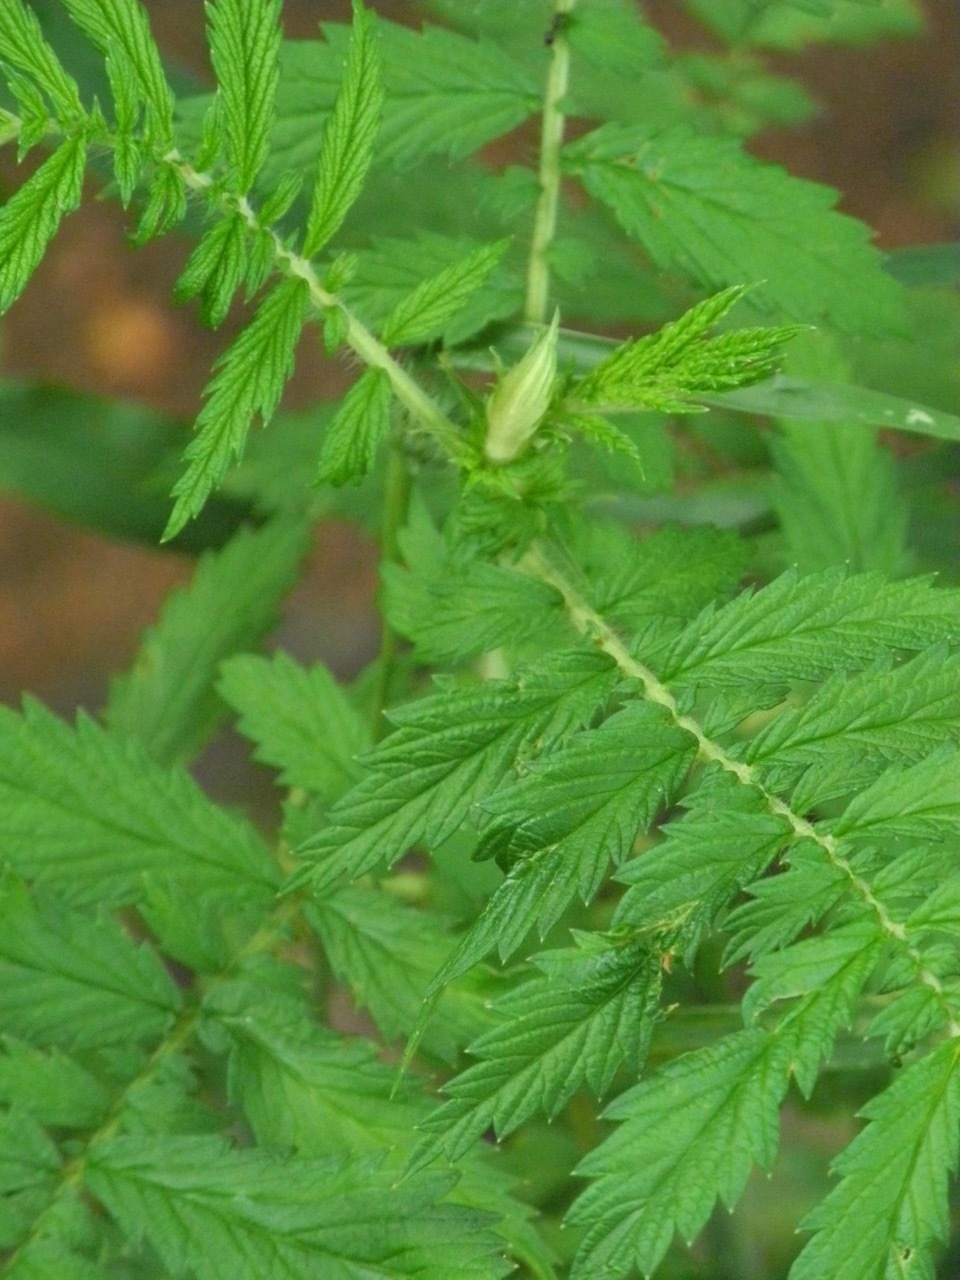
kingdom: Plantae
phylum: Tracheophyta
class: Magnoliopsida
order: Rosales
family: Rosaceae
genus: Agrimonia
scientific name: Agrimonia parviflora
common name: Harvest-lice
